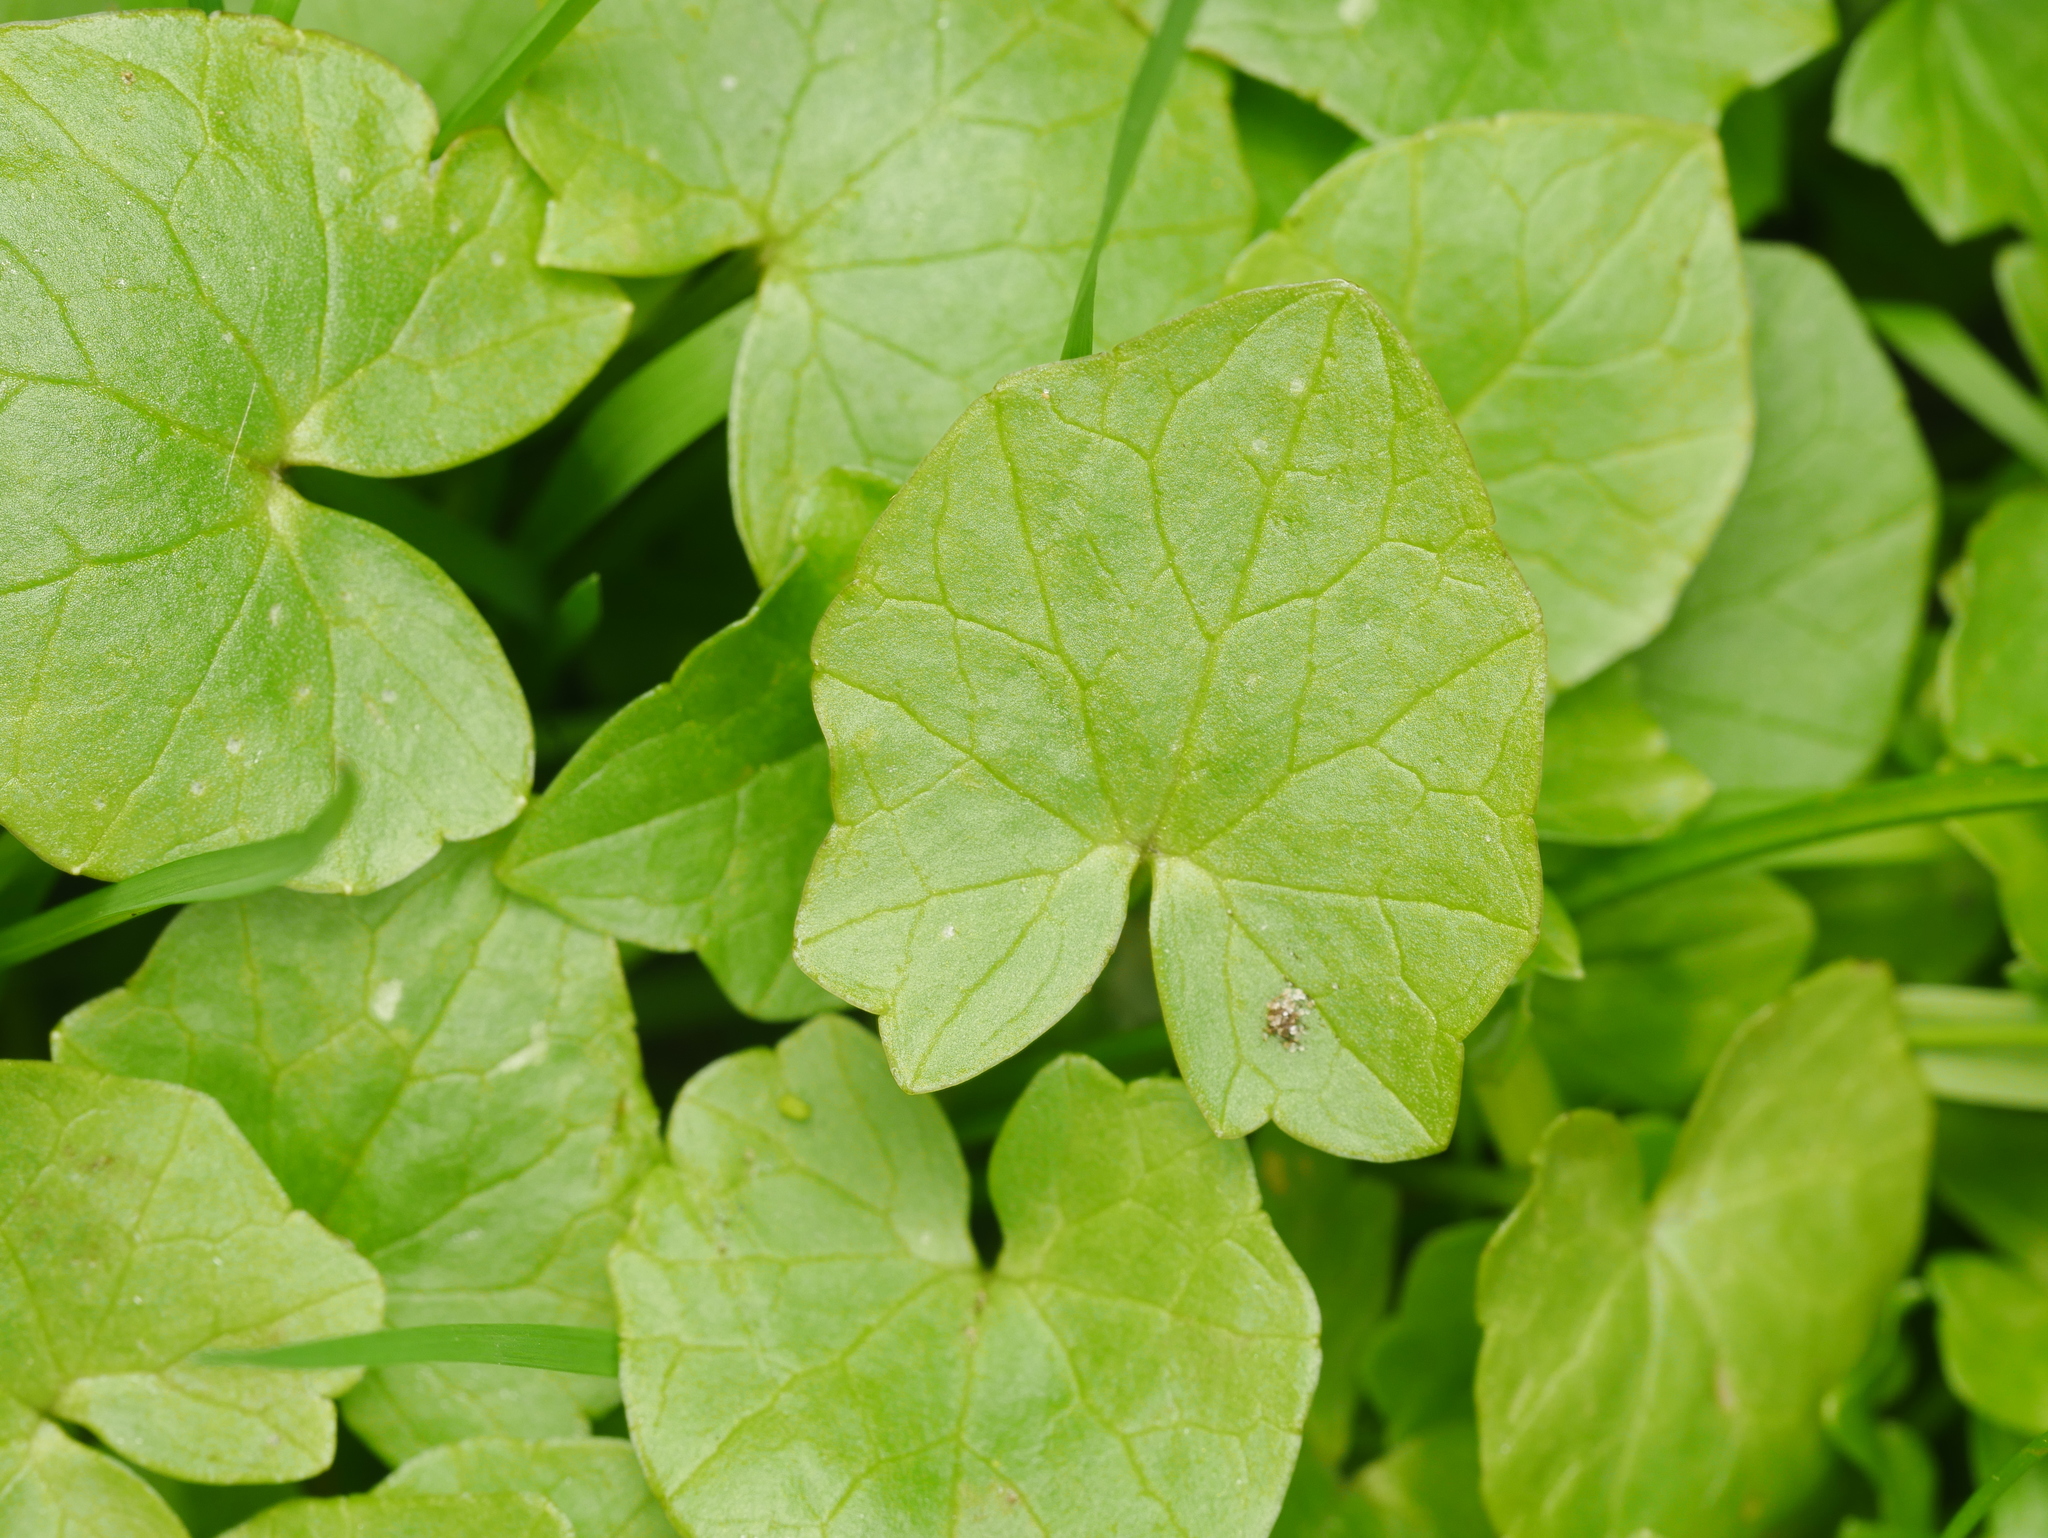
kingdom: Plantae
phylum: Tracheophyta
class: Magnoliopsida
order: Ranunculales
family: Ranunculaceae
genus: Ficaria
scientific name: Ficaria verna
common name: Lesser celandine
